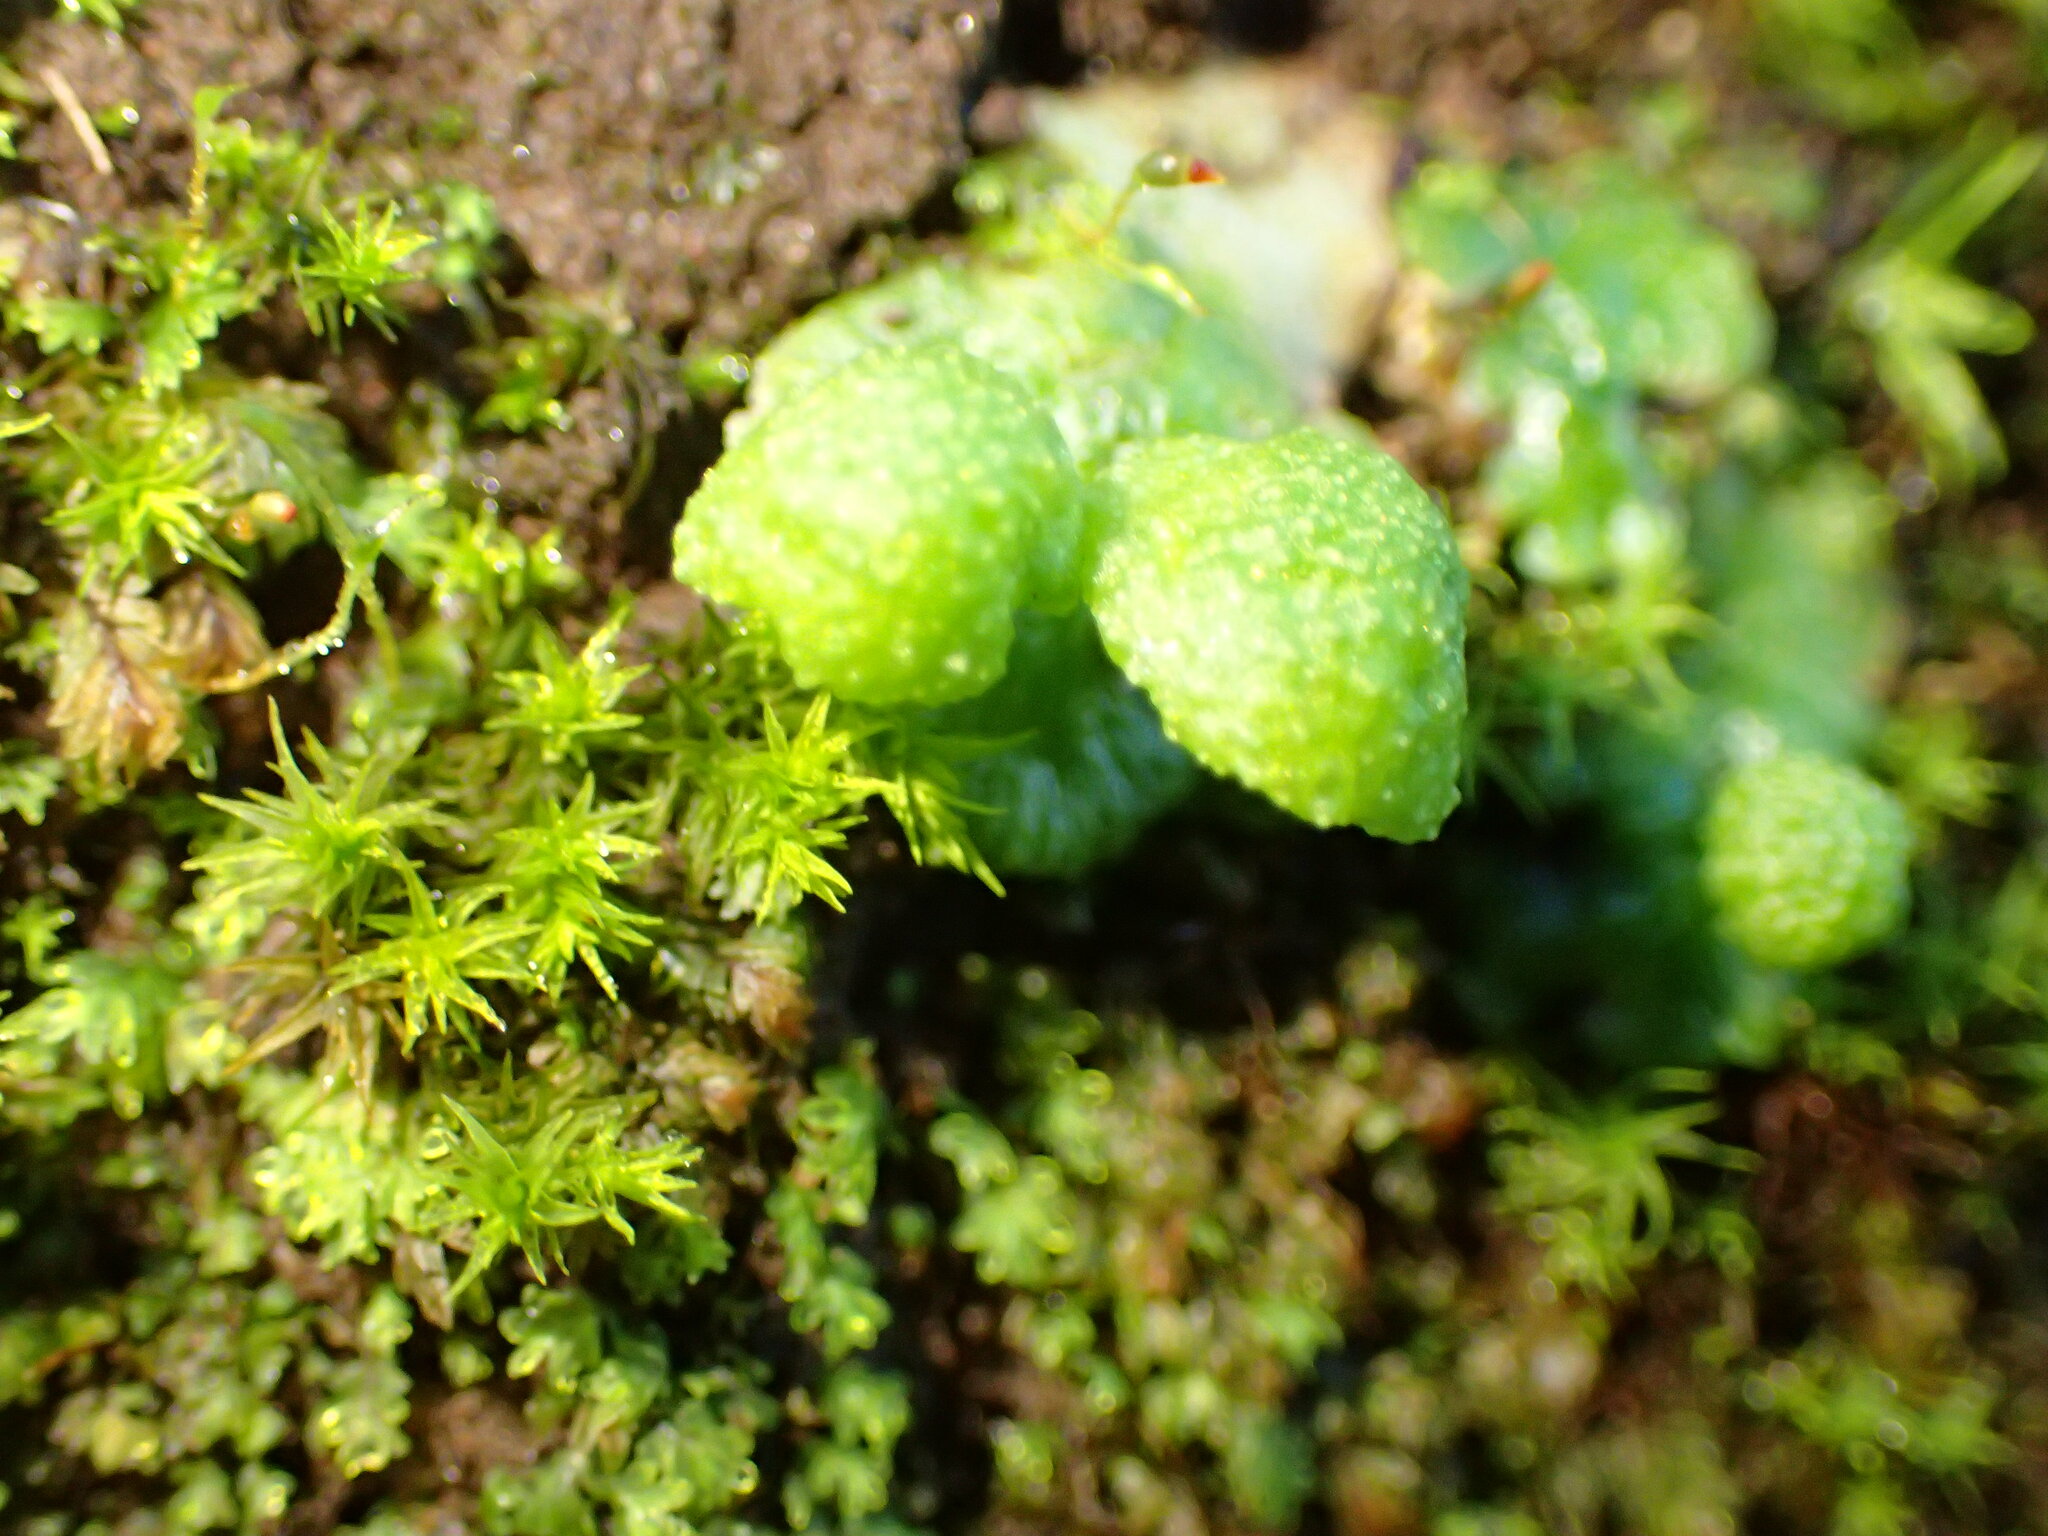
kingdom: Plantae
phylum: Marchantiophyta
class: Marchantiopsida
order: Marchantiales
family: Aytoniaceae
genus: Cryptomitrium
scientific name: Cryptomitrium tenerum
